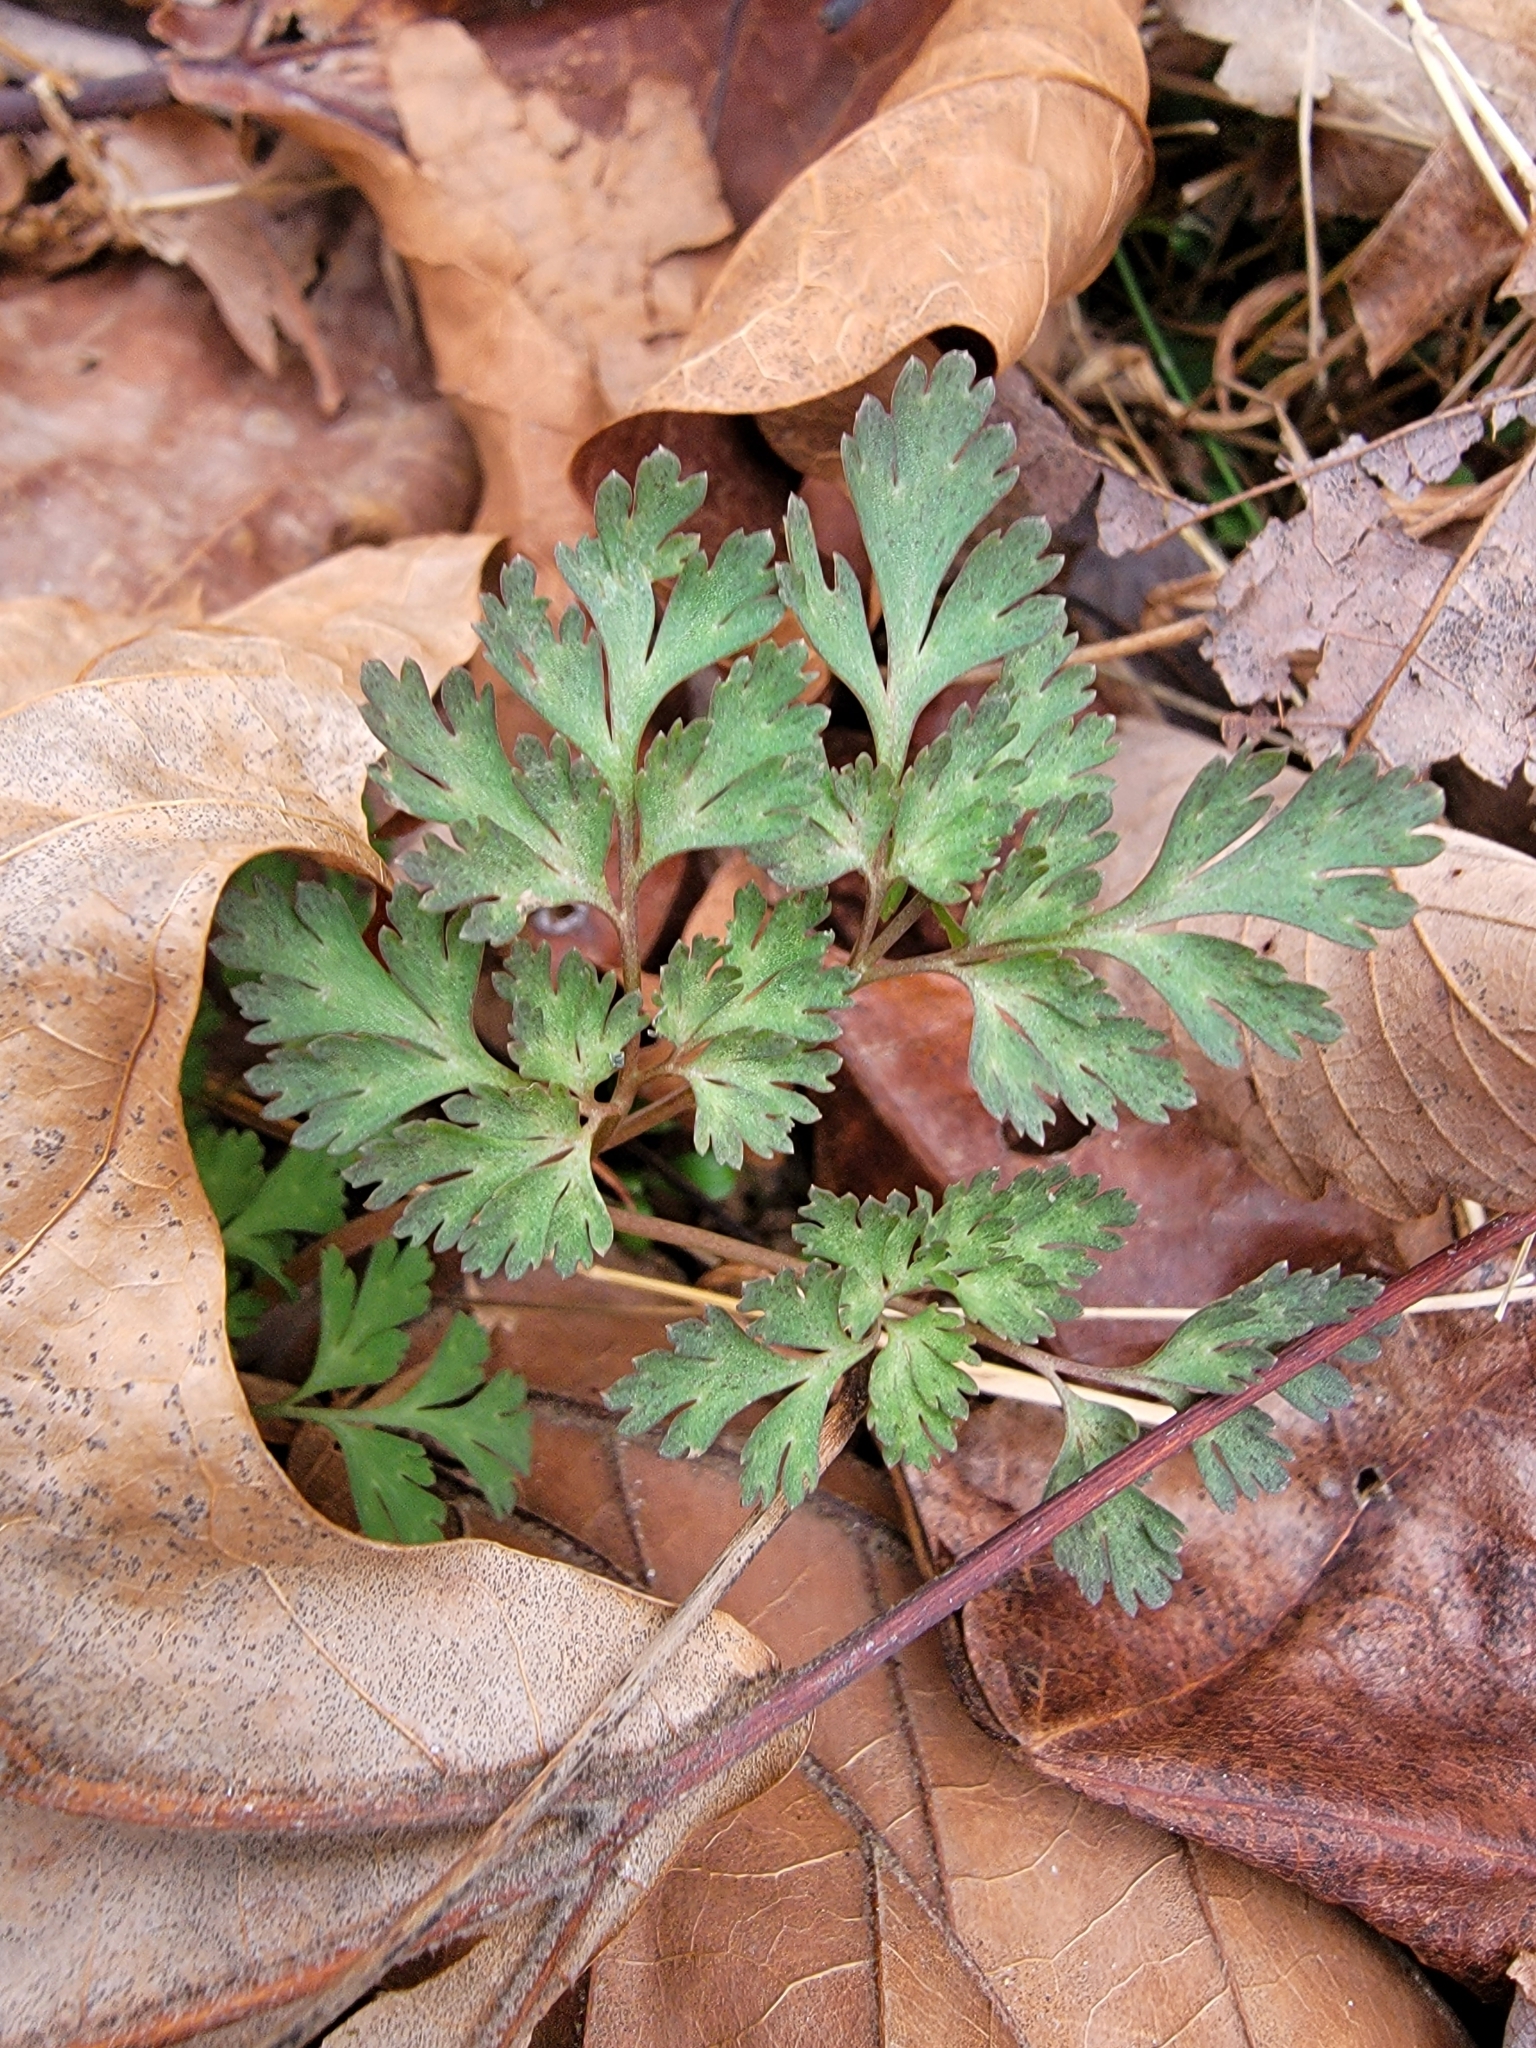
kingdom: Plantae
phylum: Tracheophyta
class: Magnoliopsida
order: Ranunculales
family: Papaveraceae
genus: Corydalis
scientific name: Corydalis incisa
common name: Incised fumewort
